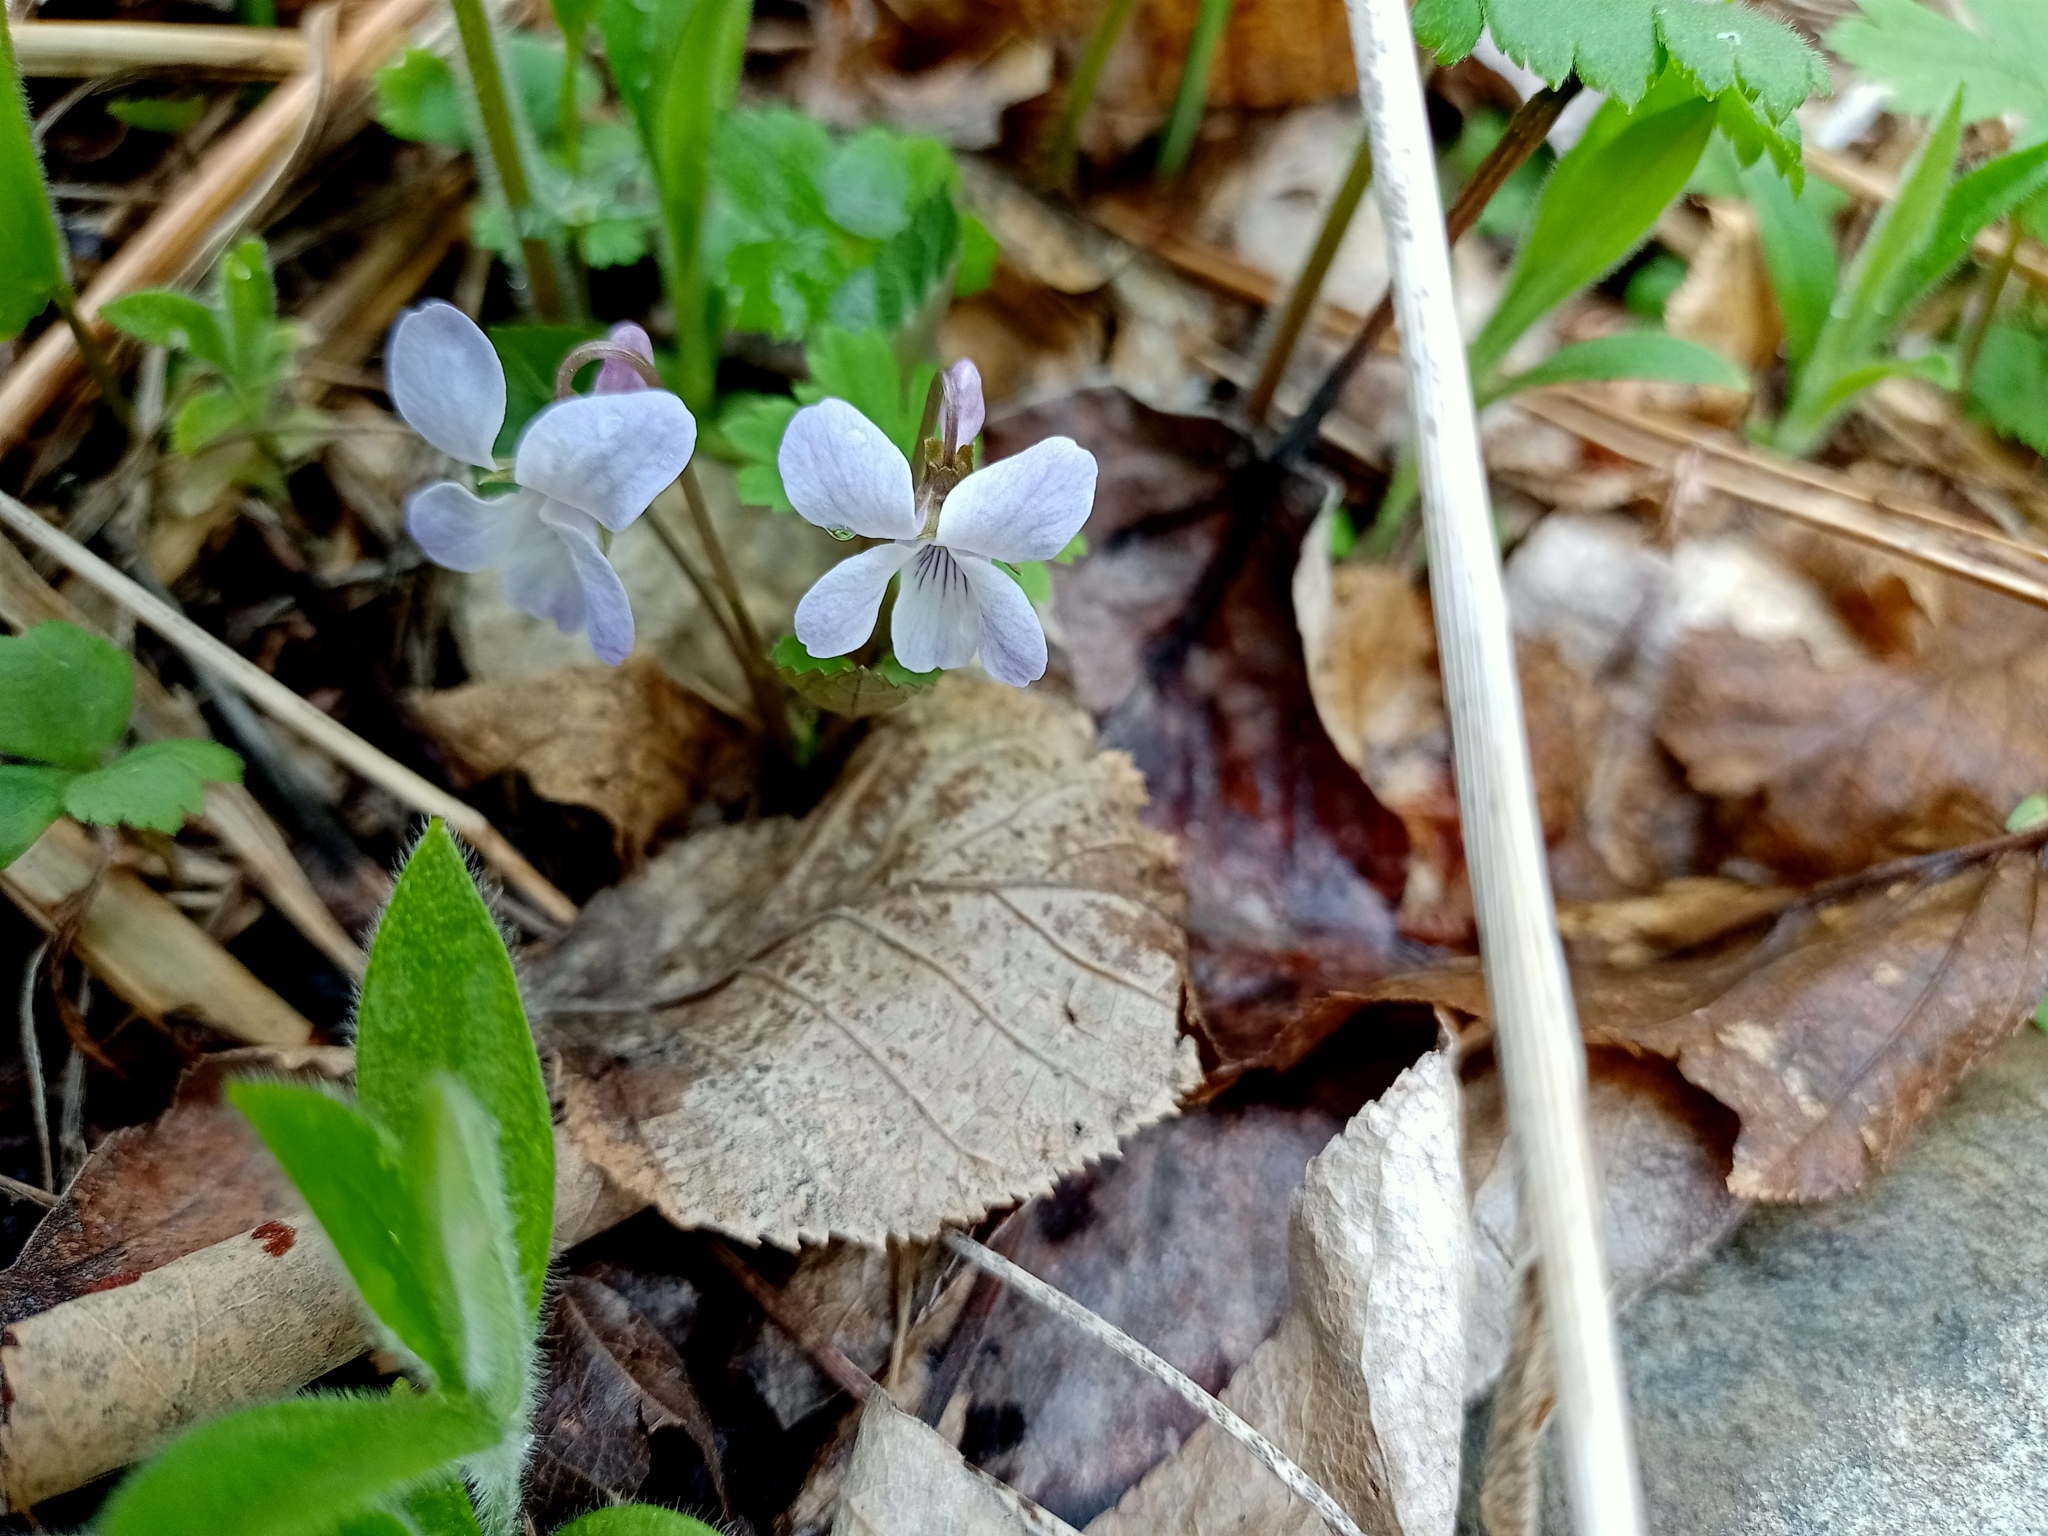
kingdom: Plantae
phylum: Tracheophyta
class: Magnoliopsida
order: Malpighiales
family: Violaceae
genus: Viola
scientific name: Viola selkirkii
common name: Selkirk's violet
